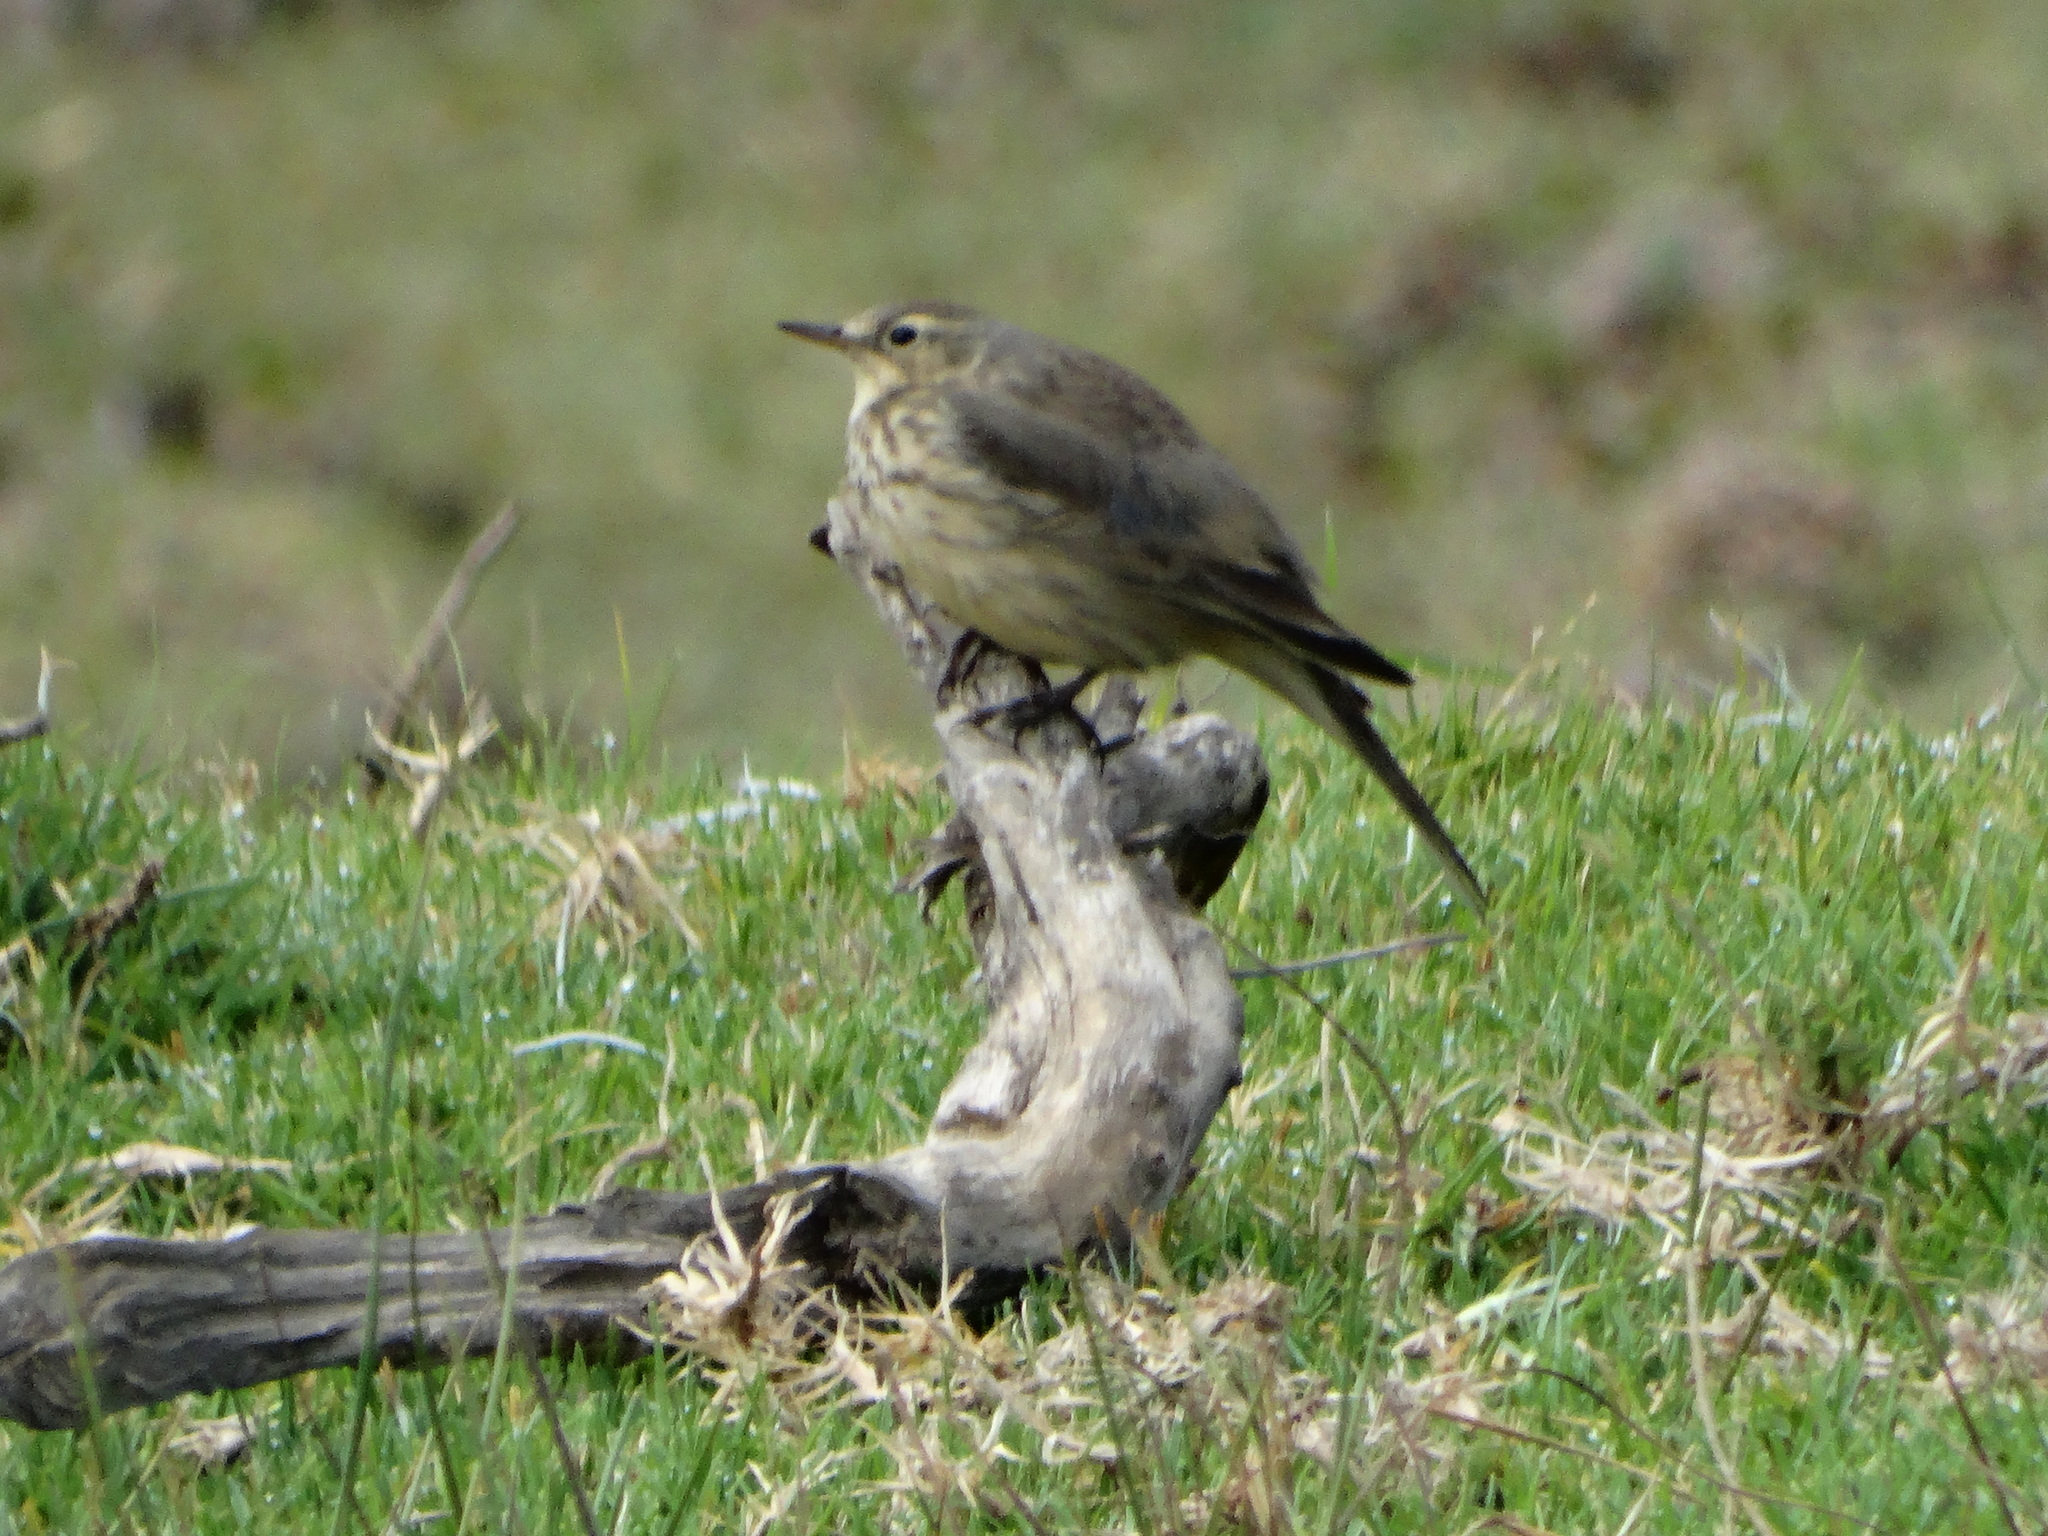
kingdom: Animalia
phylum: Chordata
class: Aves
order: Passeriformes
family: Motacillidae
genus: Anthus
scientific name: Anthus rubescens
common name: Buff-bellied pipit
